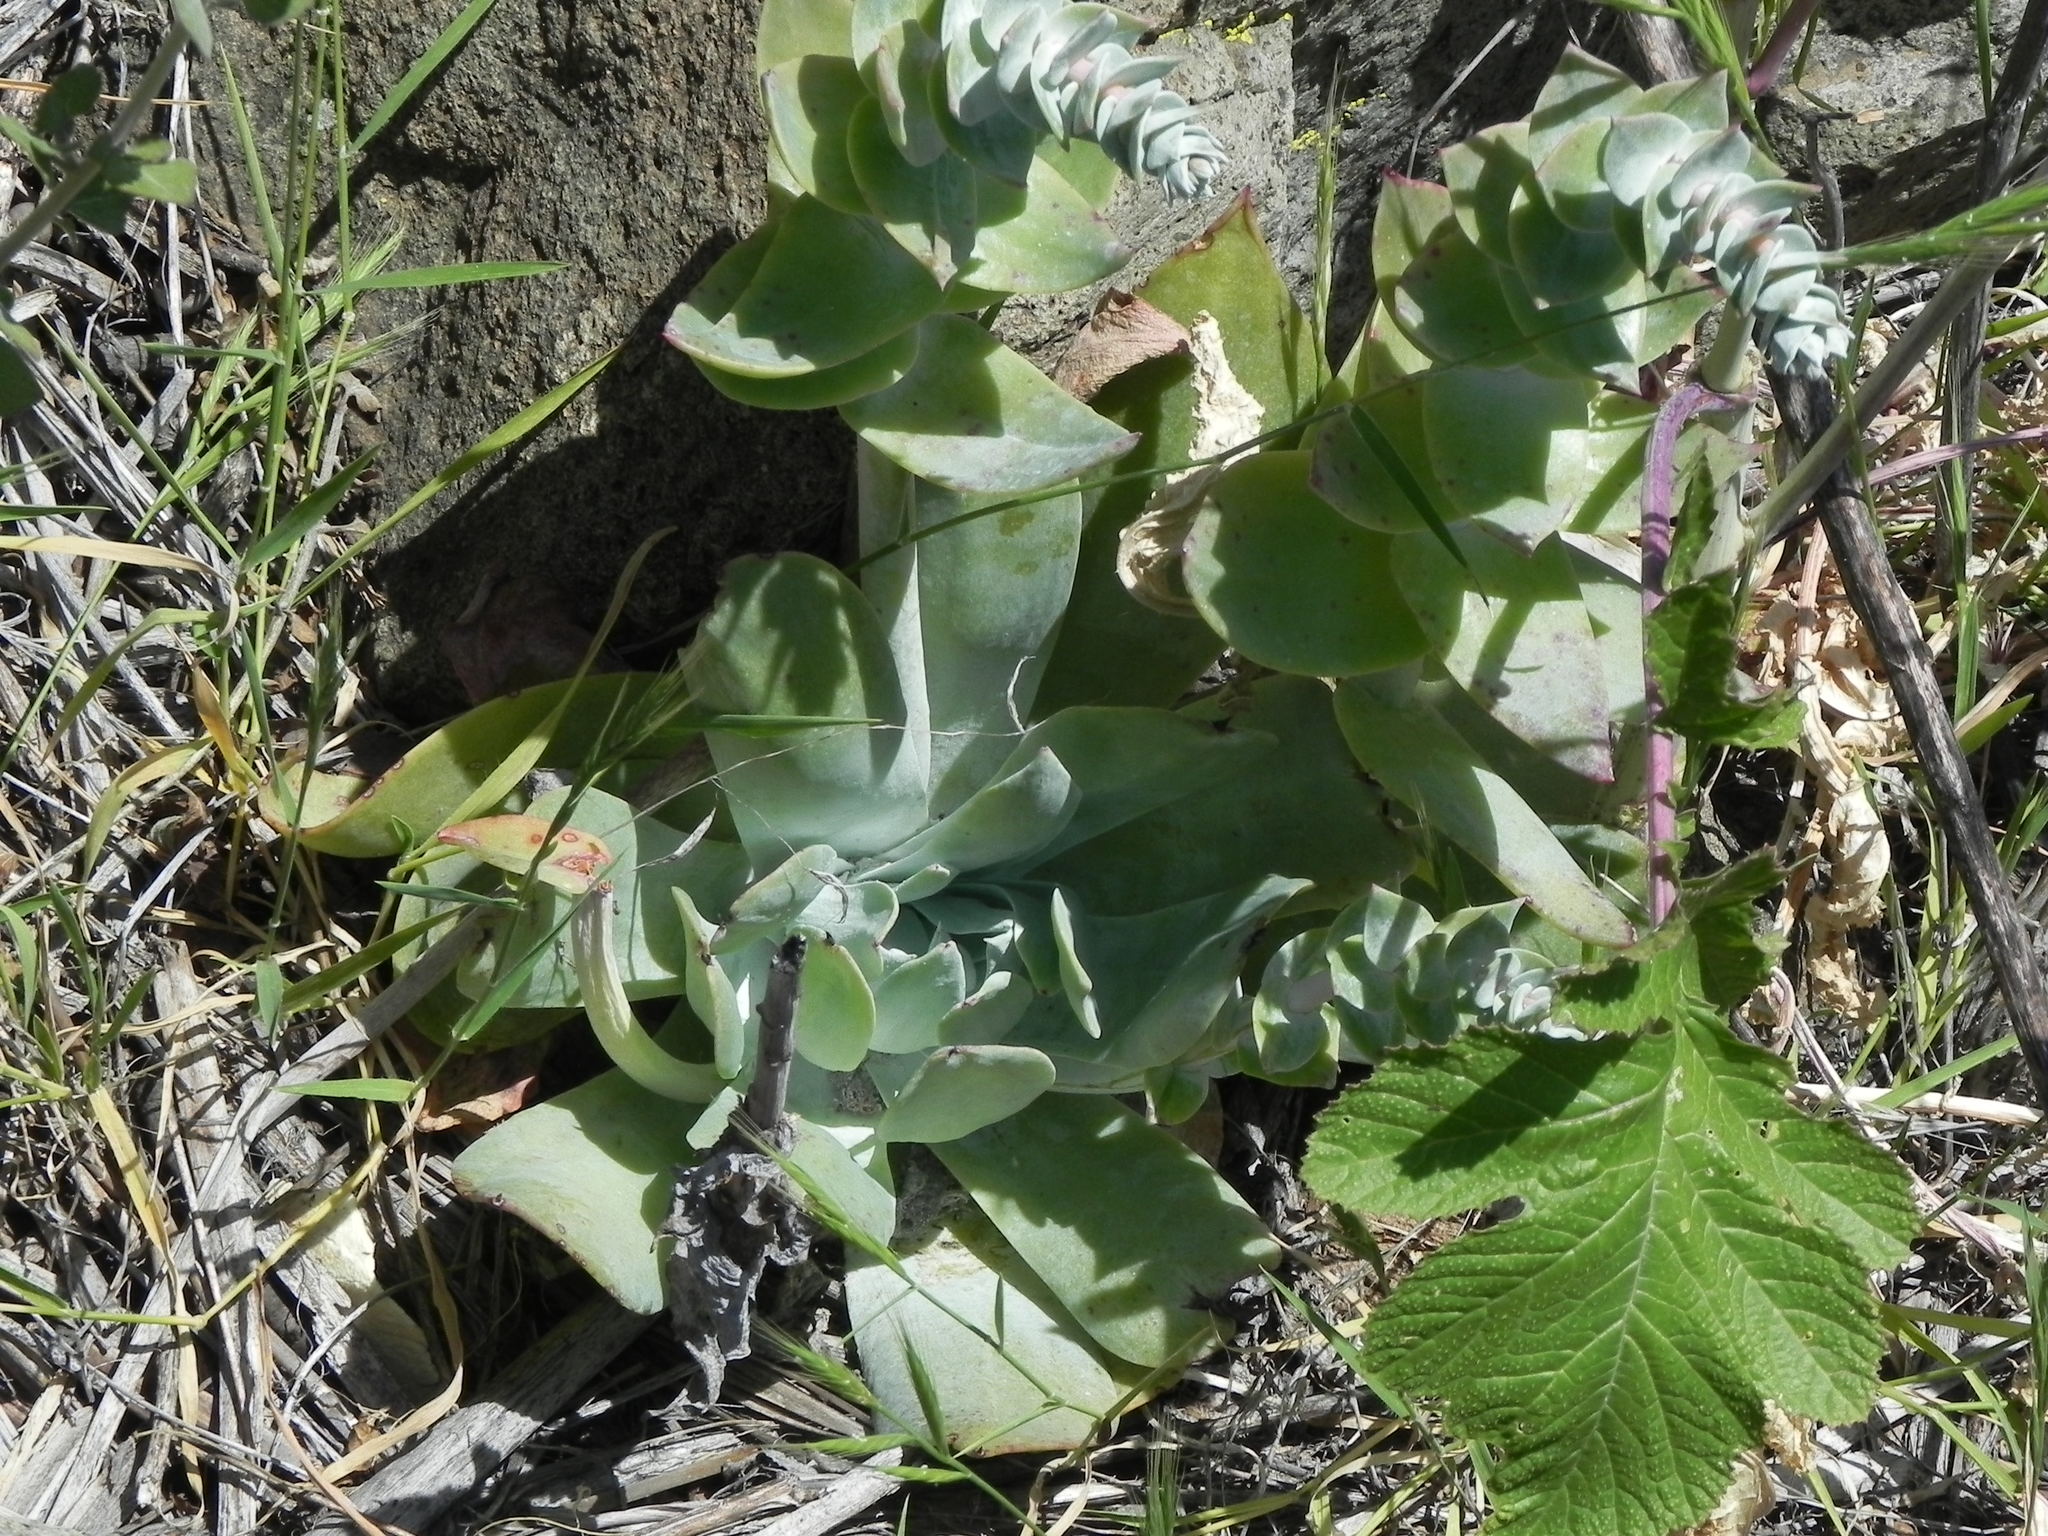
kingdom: Plantae
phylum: Tracheophyta
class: Magnoliopsida
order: Saxifragales
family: Crassulaceae
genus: Dudleya
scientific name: Dudleya pulverulenta
